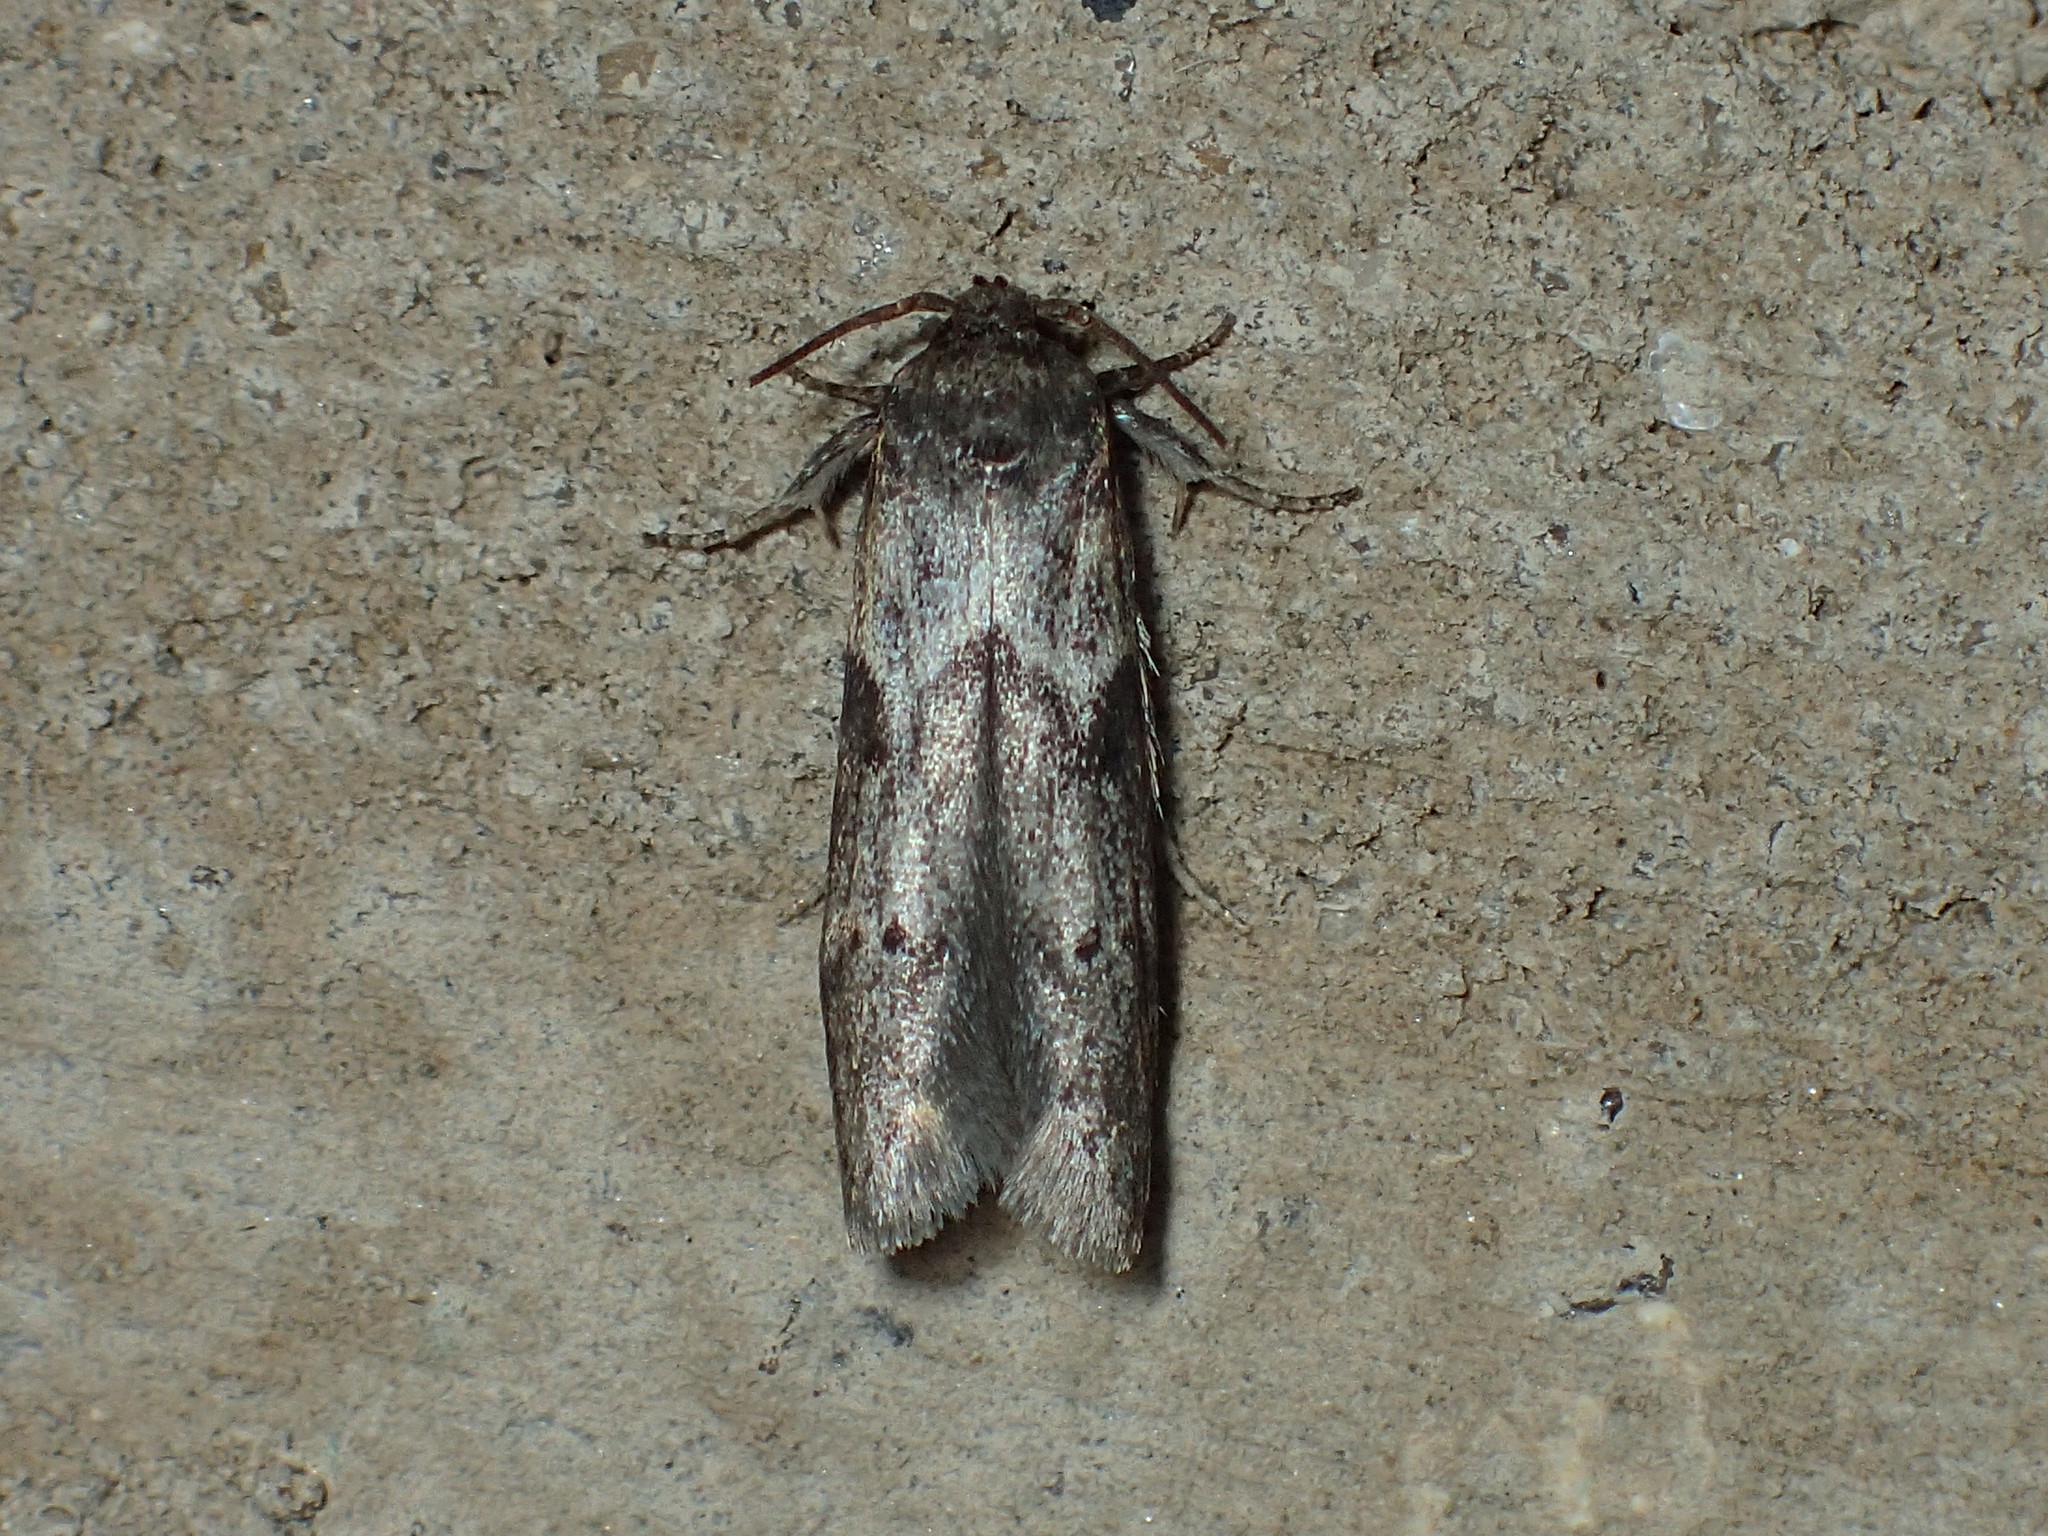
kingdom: Animalia
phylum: Arthropoda
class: Insecta
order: Lepidoptera
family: Blastobasidae
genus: Blastobasis
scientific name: Blastobasis glandulella
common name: Acorn moth
